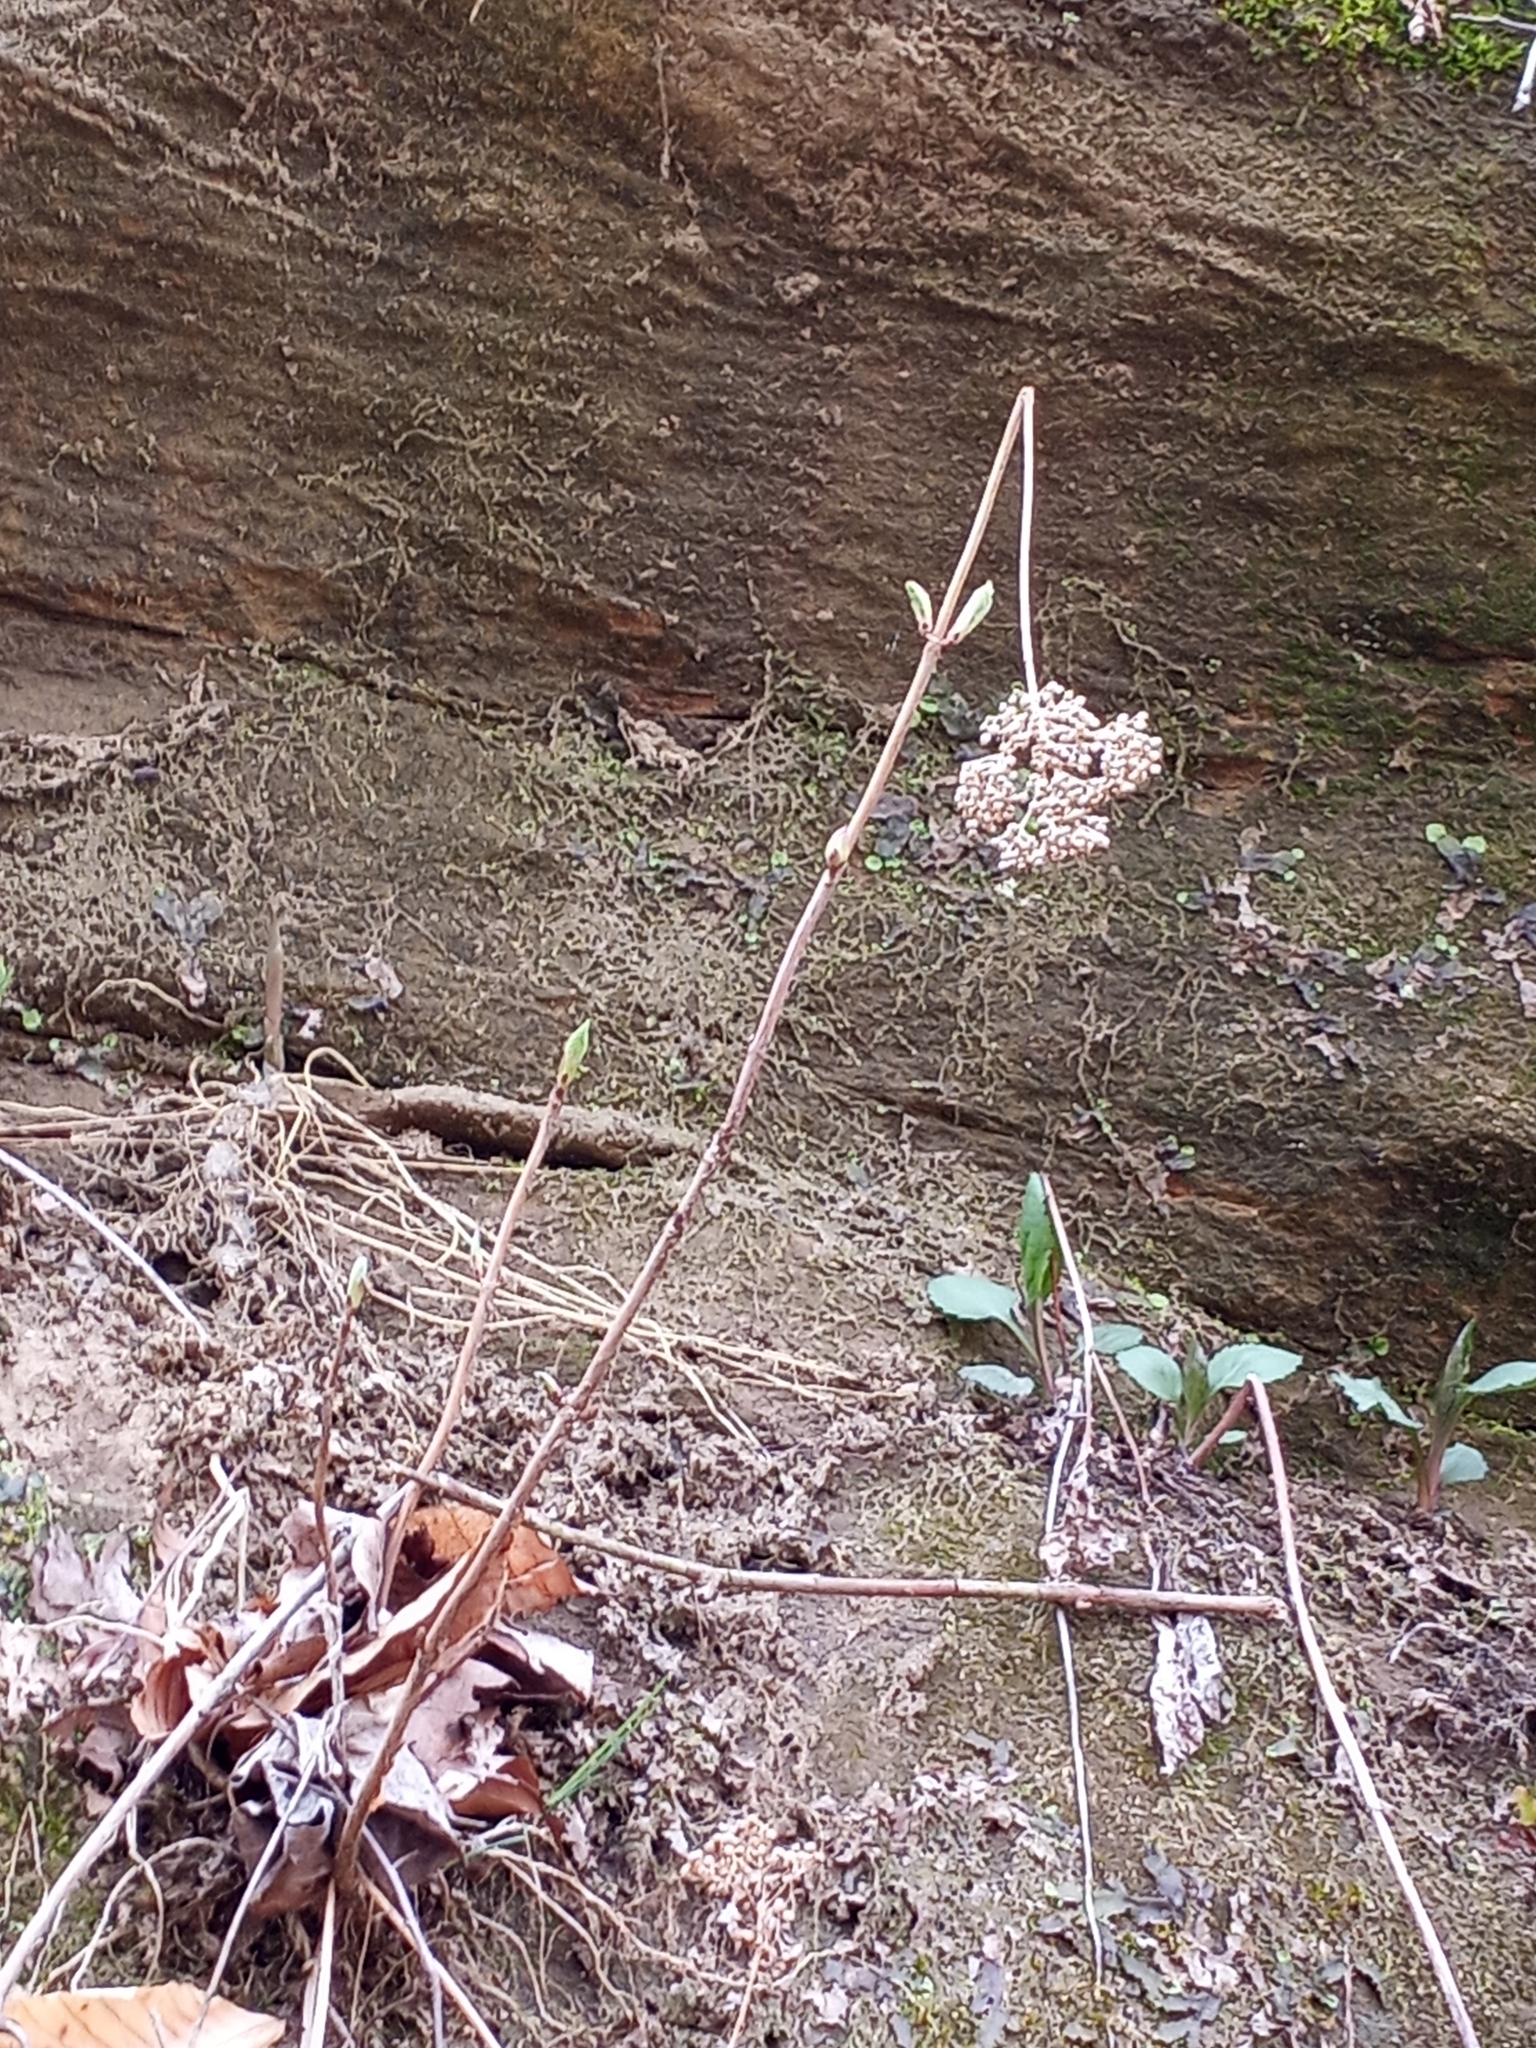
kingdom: Plantae
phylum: Tracheophyta
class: Magnoliopsida
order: Cornales
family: Hydrangeaceae
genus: Hydrangea
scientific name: Hydrangea arborescens
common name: Sevenbark
